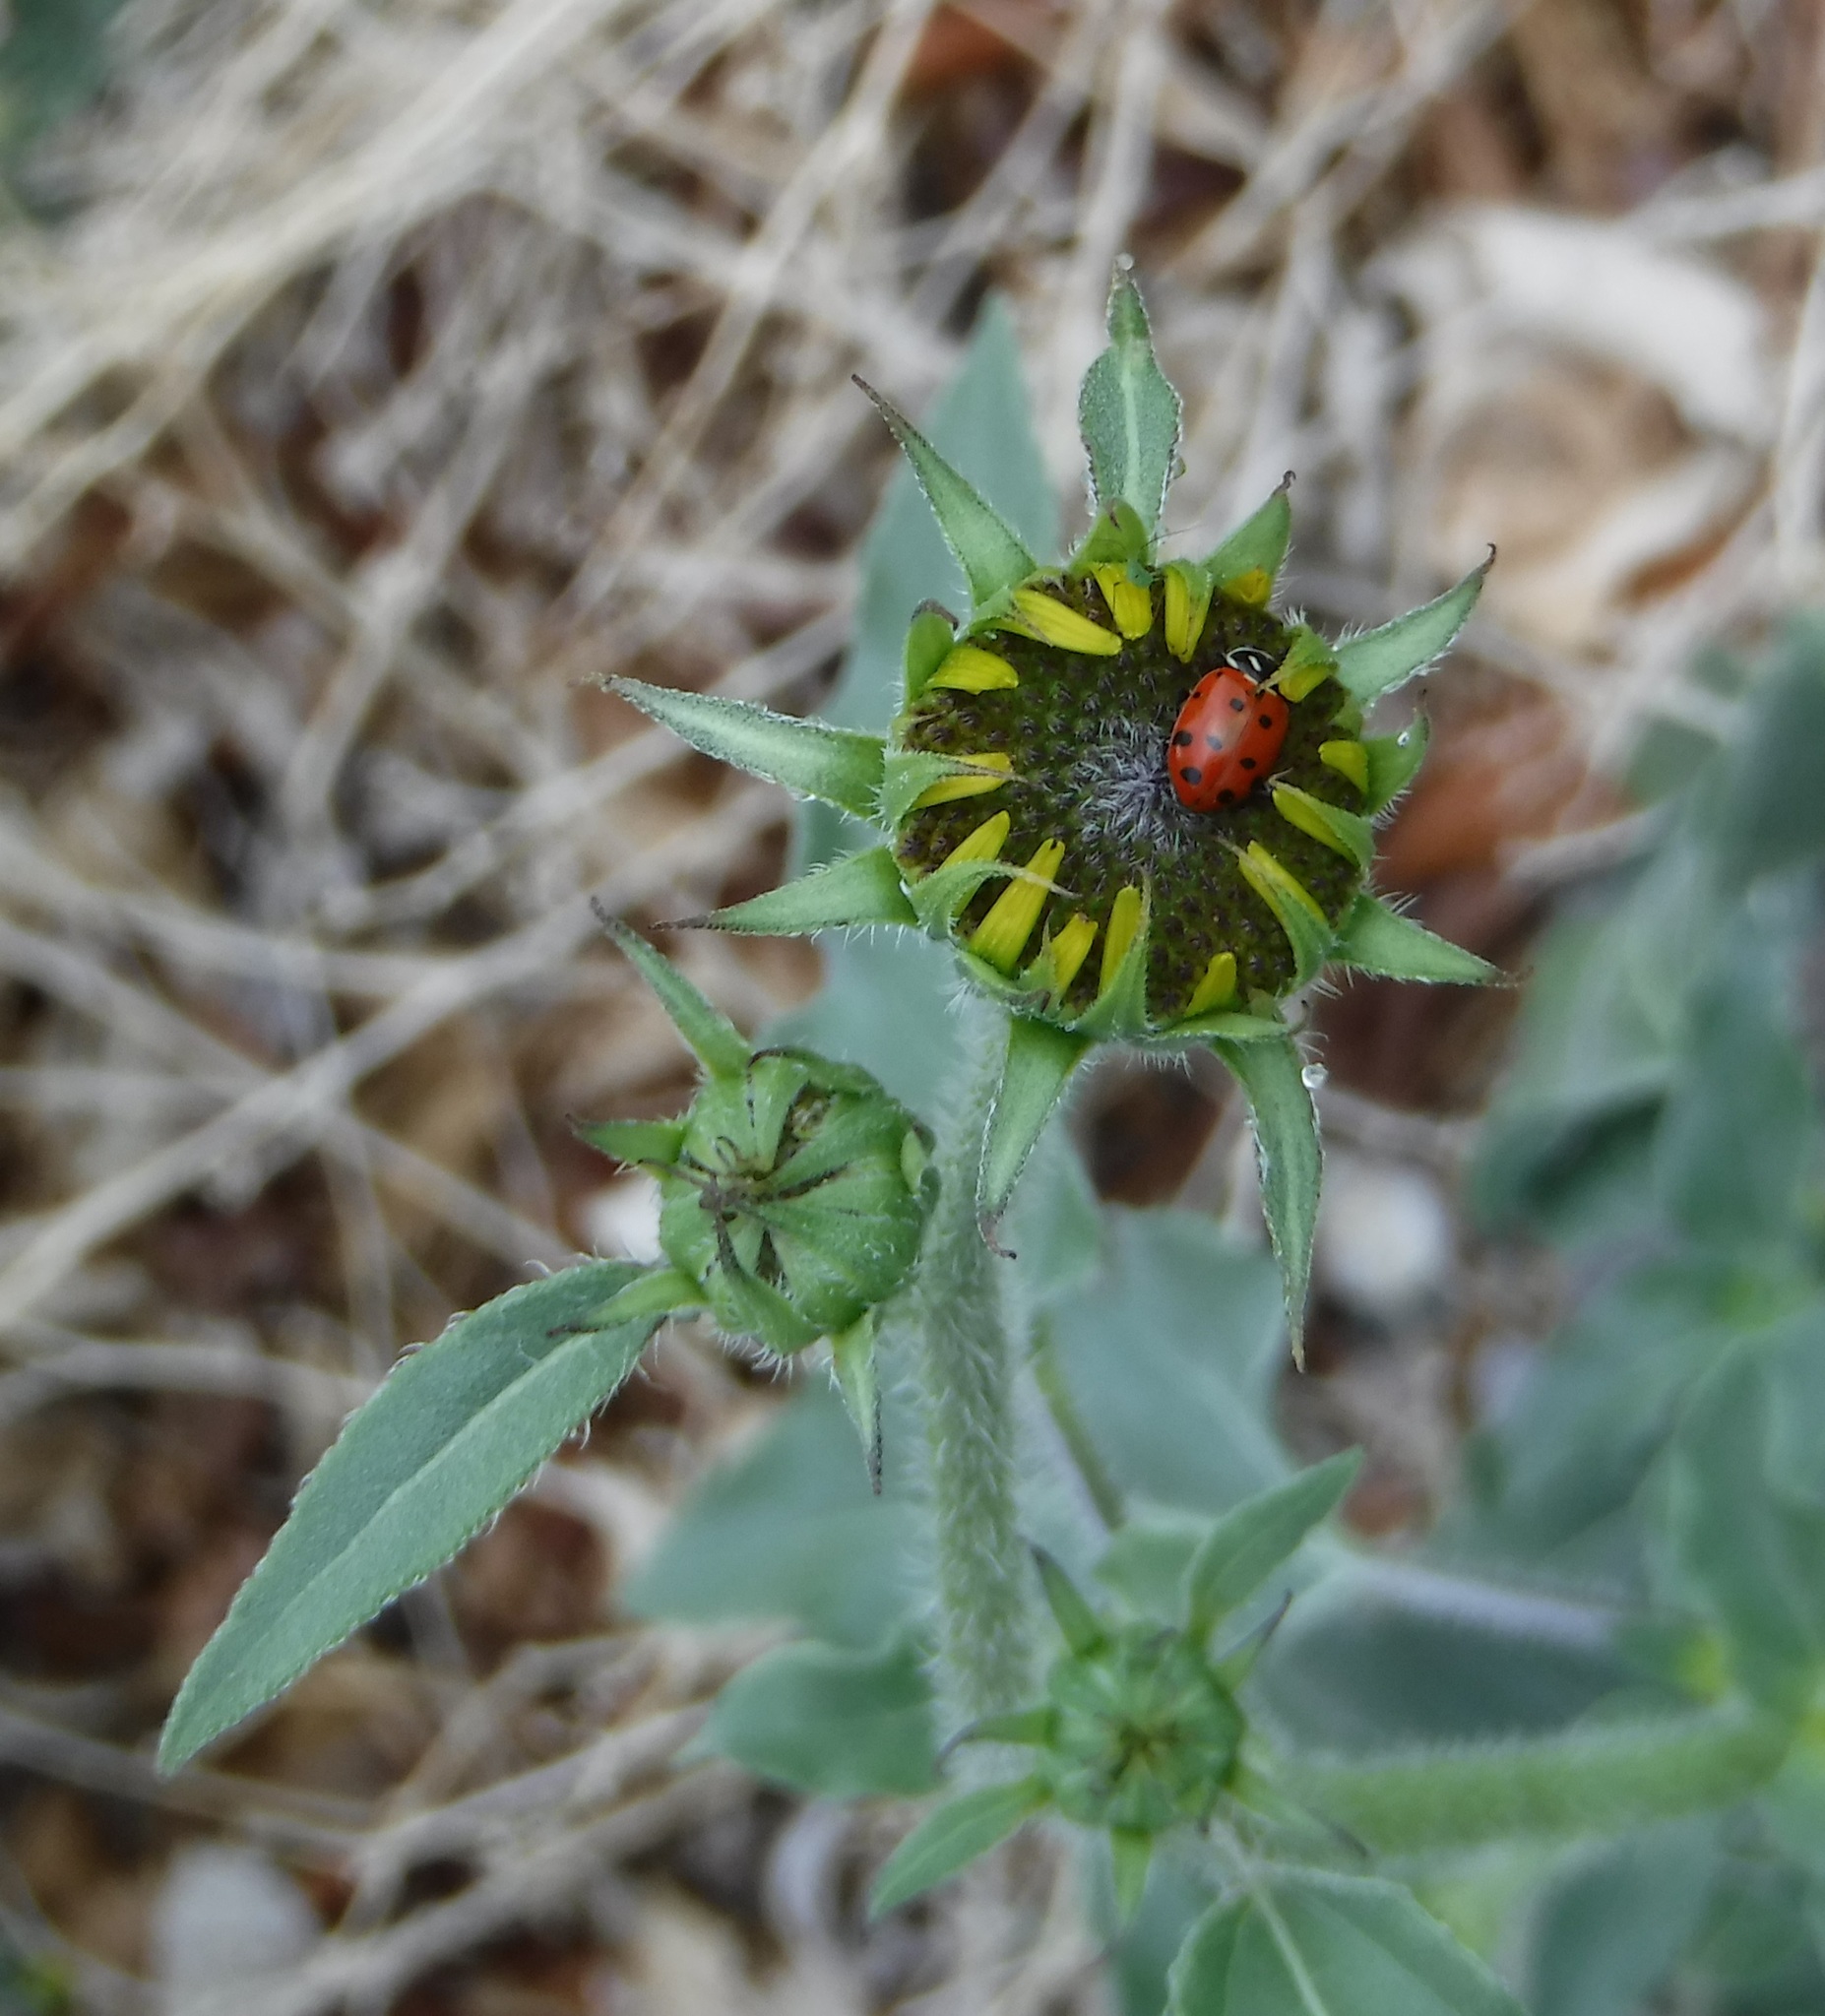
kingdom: Animalia
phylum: Arthropoda
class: Insecta
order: Coleoptera
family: Coccinellidae
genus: Hippodamia
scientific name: Hippodamia convergens
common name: Convergent lady beetle
